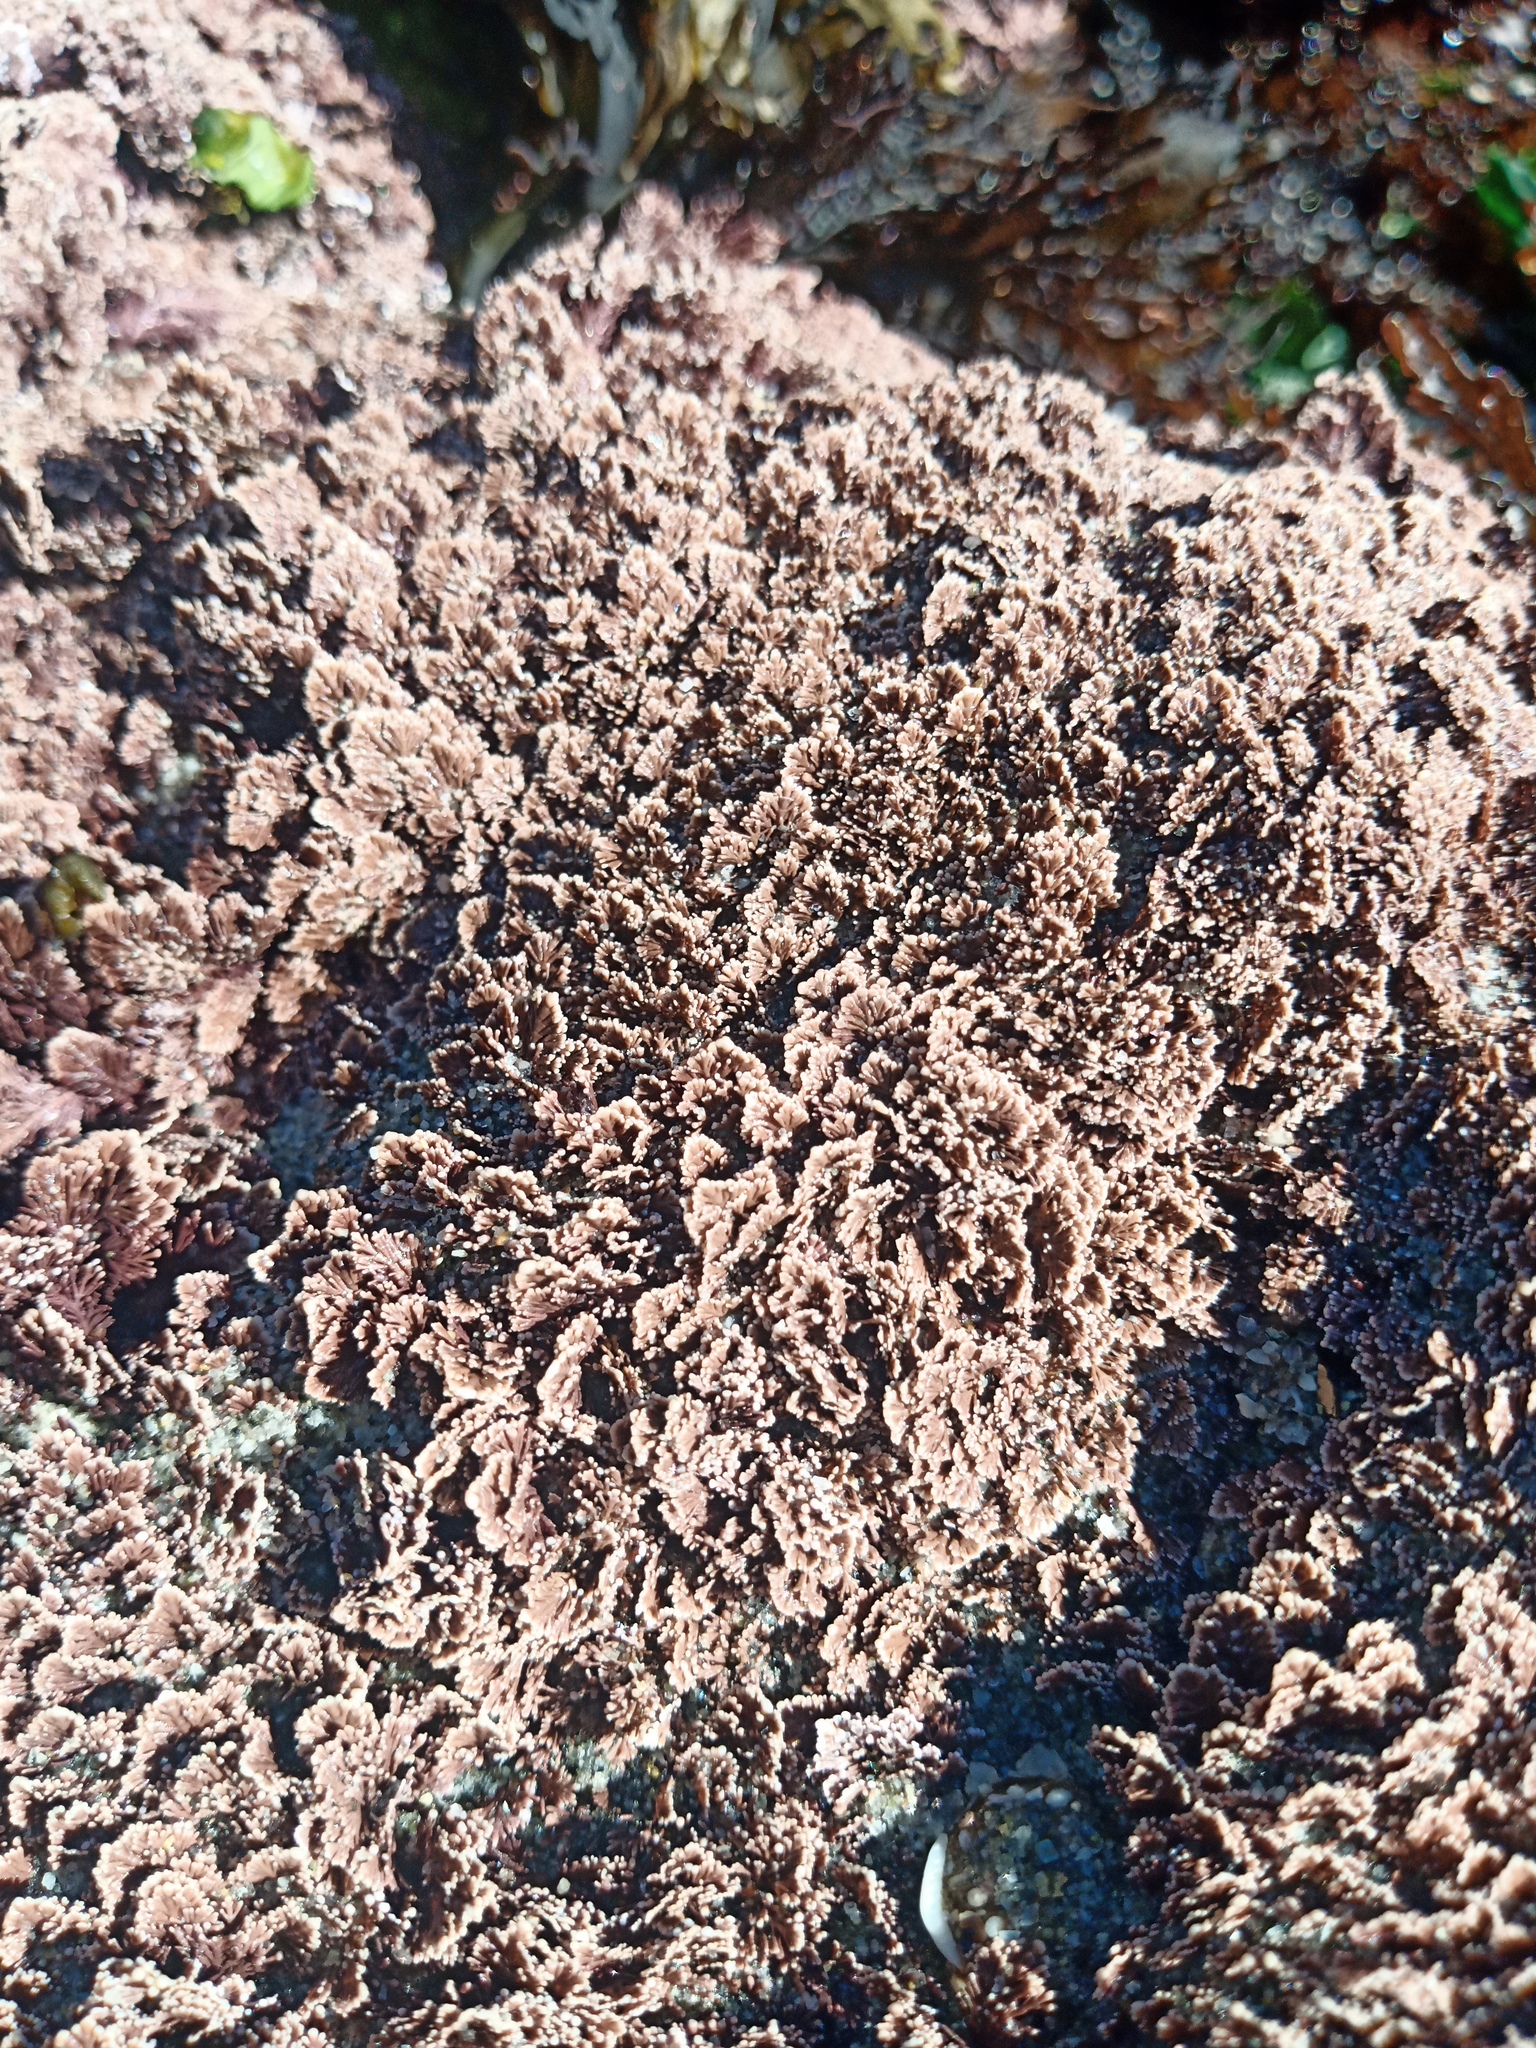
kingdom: Plantae
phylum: Rhodophyta
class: Florideophyceae
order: Corallinales
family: Corallinaceae
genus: Corallina
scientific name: Corallina officinalis
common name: Coral weed
